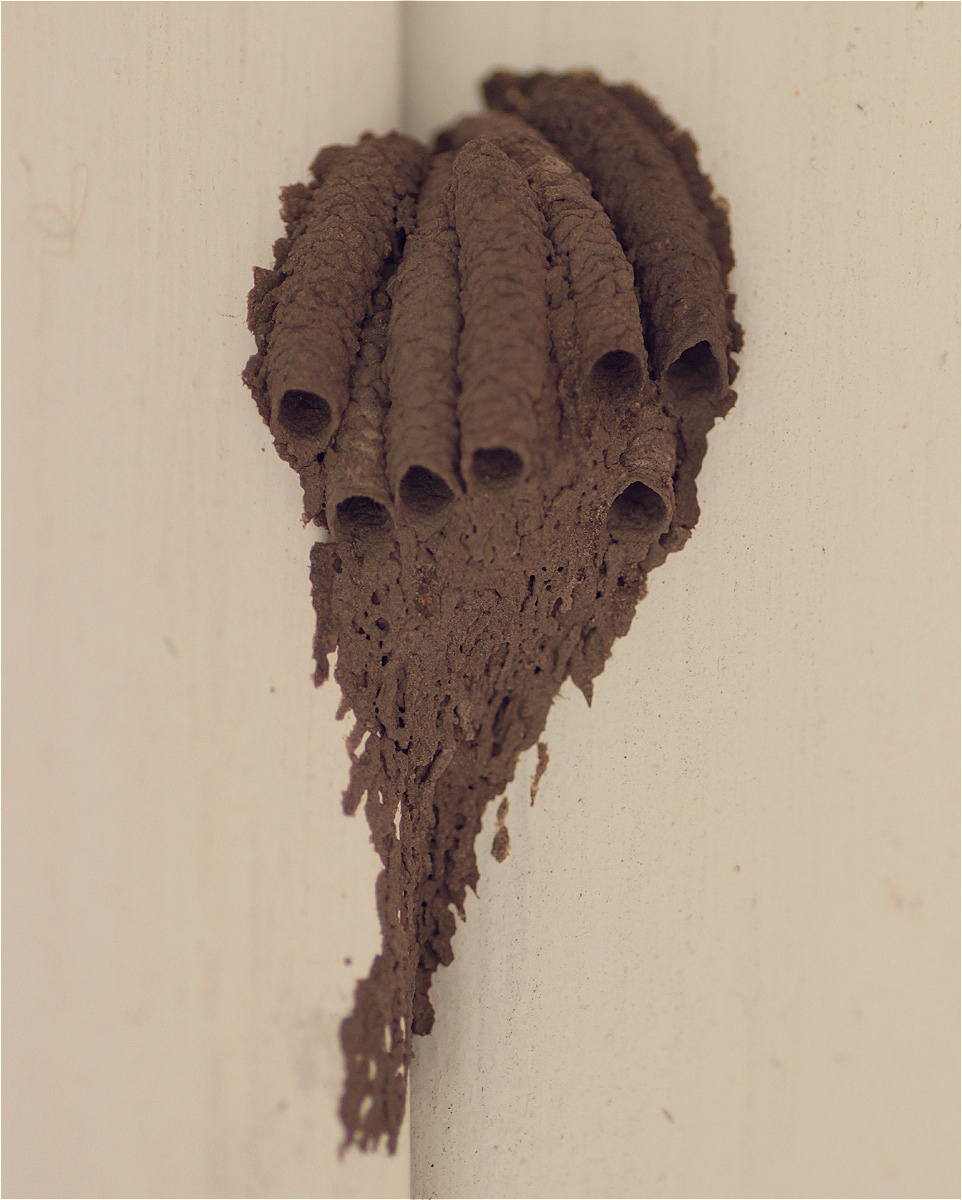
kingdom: Animalia
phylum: Arthropoda
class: Insecta
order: Hymenoptera
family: Crabronidae
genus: Trypoxylon
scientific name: Trypoxylon
